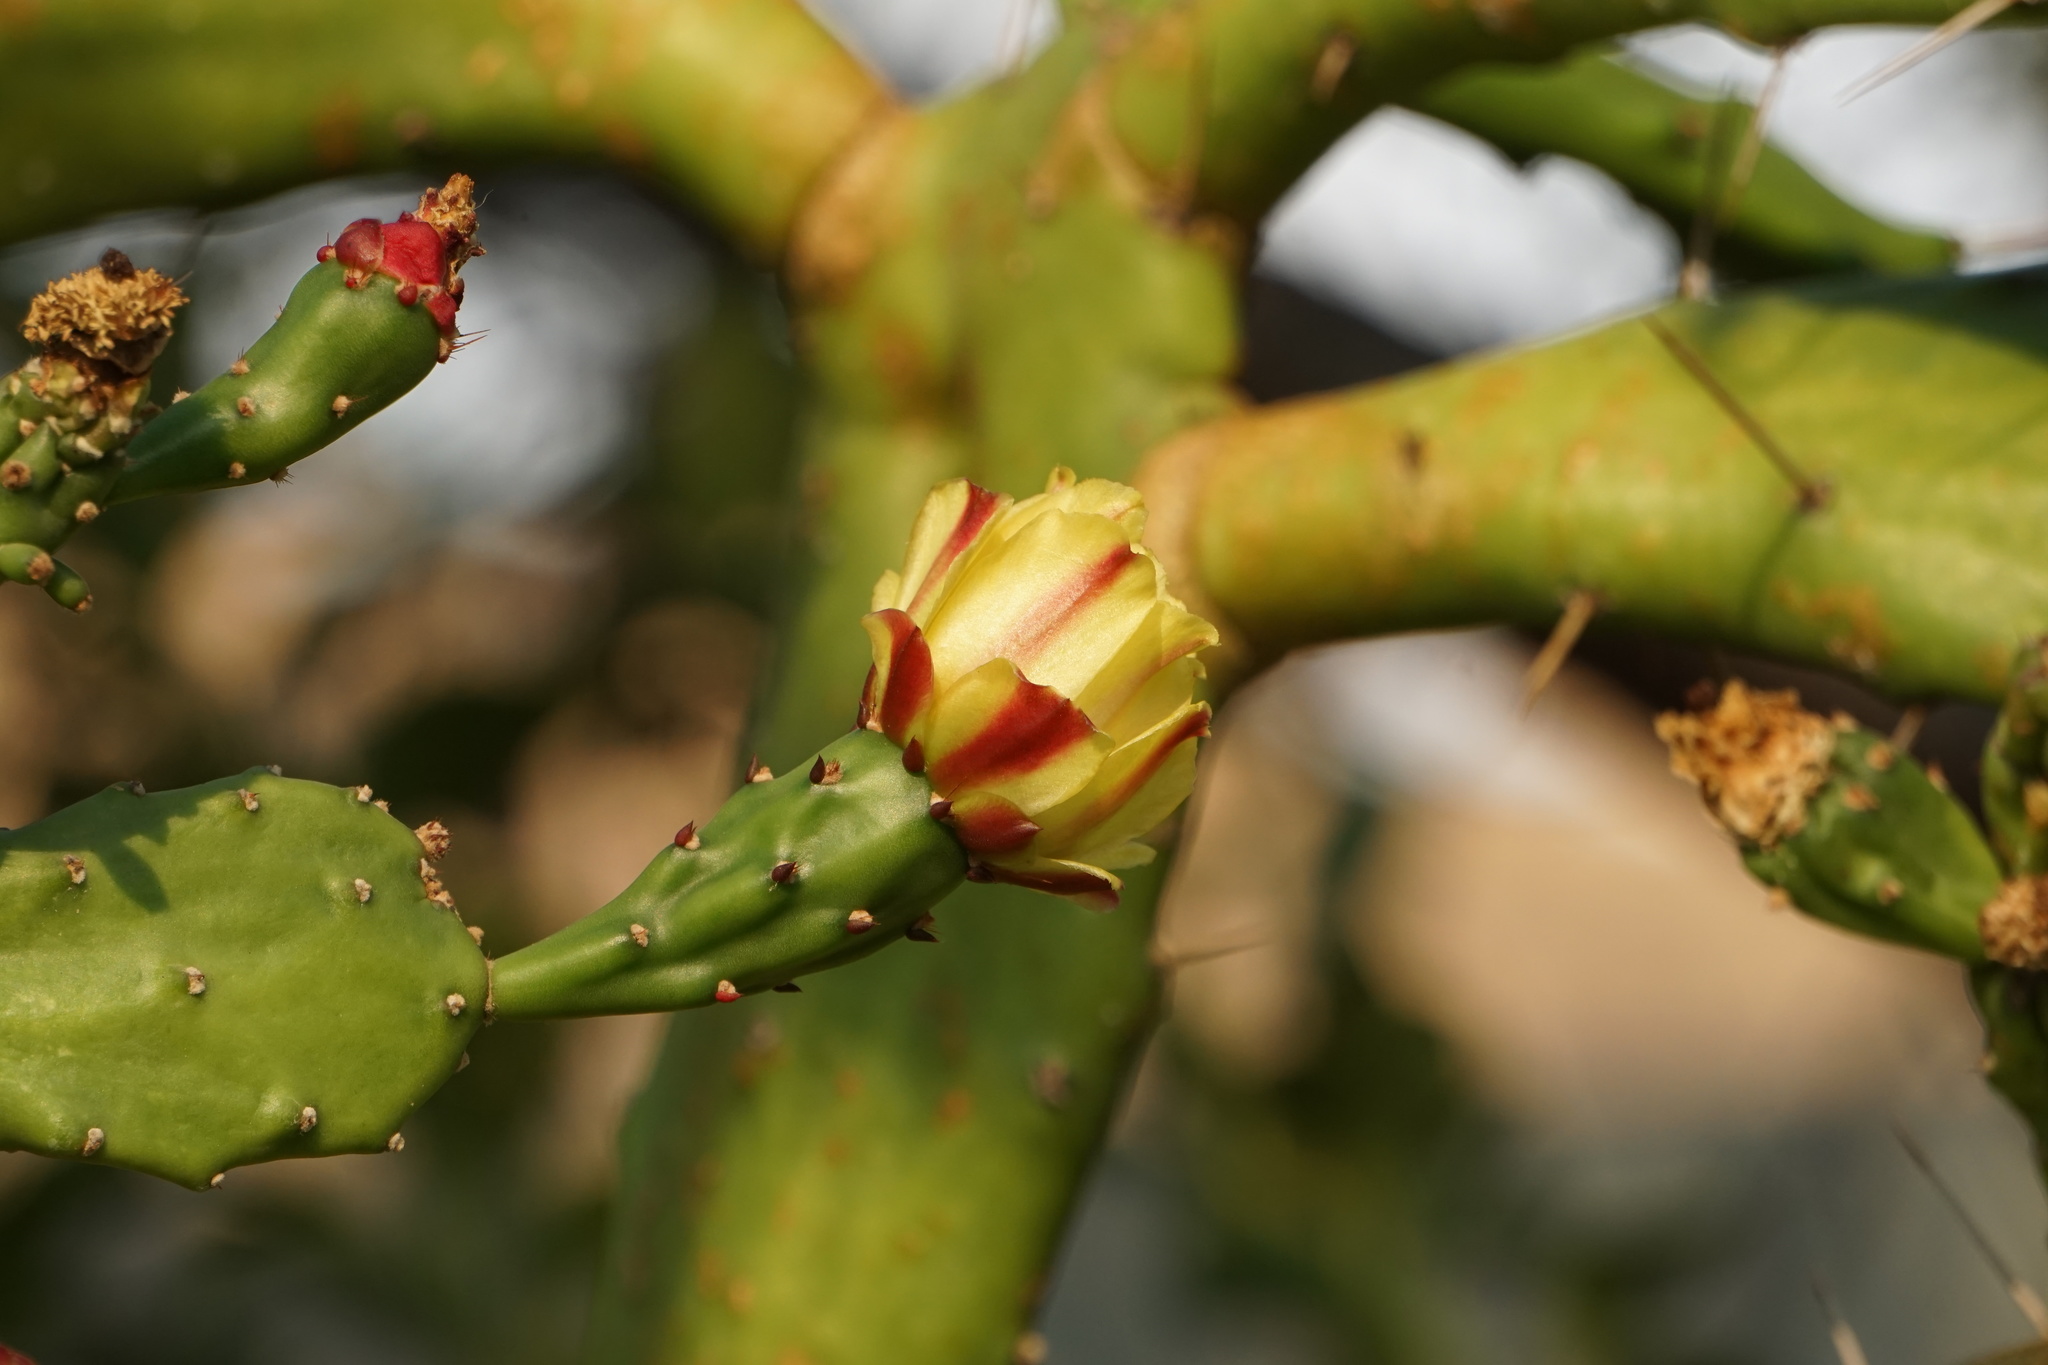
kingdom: Plantae
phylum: Tracheophyta
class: Magnoliopsida
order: Caryophyllales
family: Cactaceae
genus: Opuntia
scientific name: Opuntia monacantha
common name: Common pricklypear
